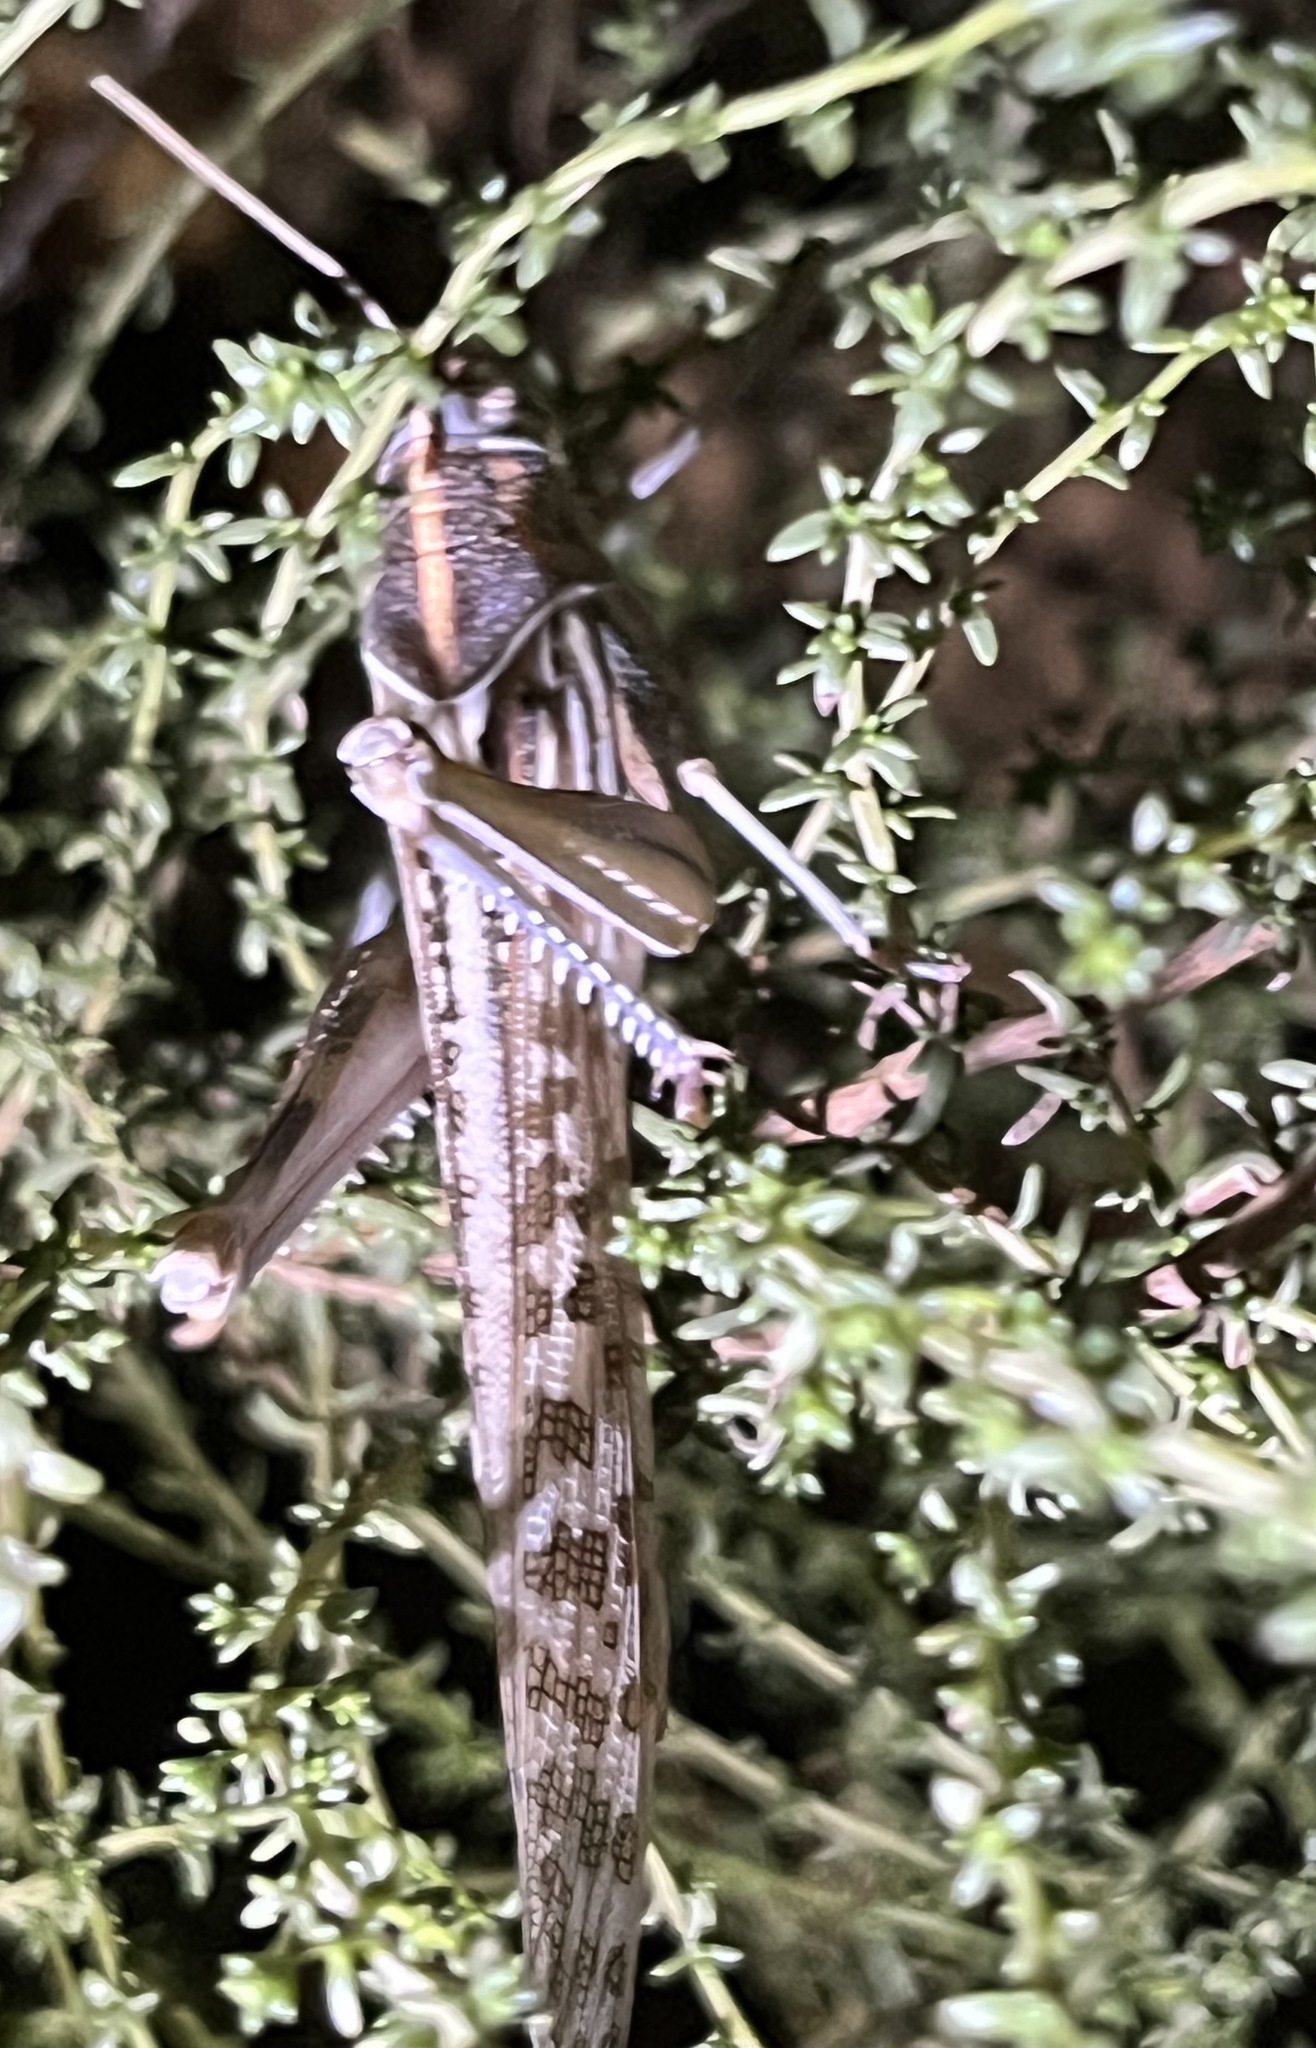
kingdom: Animalia
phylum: Arthropoda
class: Insecta
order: Orthoptera
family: Acrididae
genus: Schistocerca
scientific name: Schistocerca gregaria
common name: Desert locust
